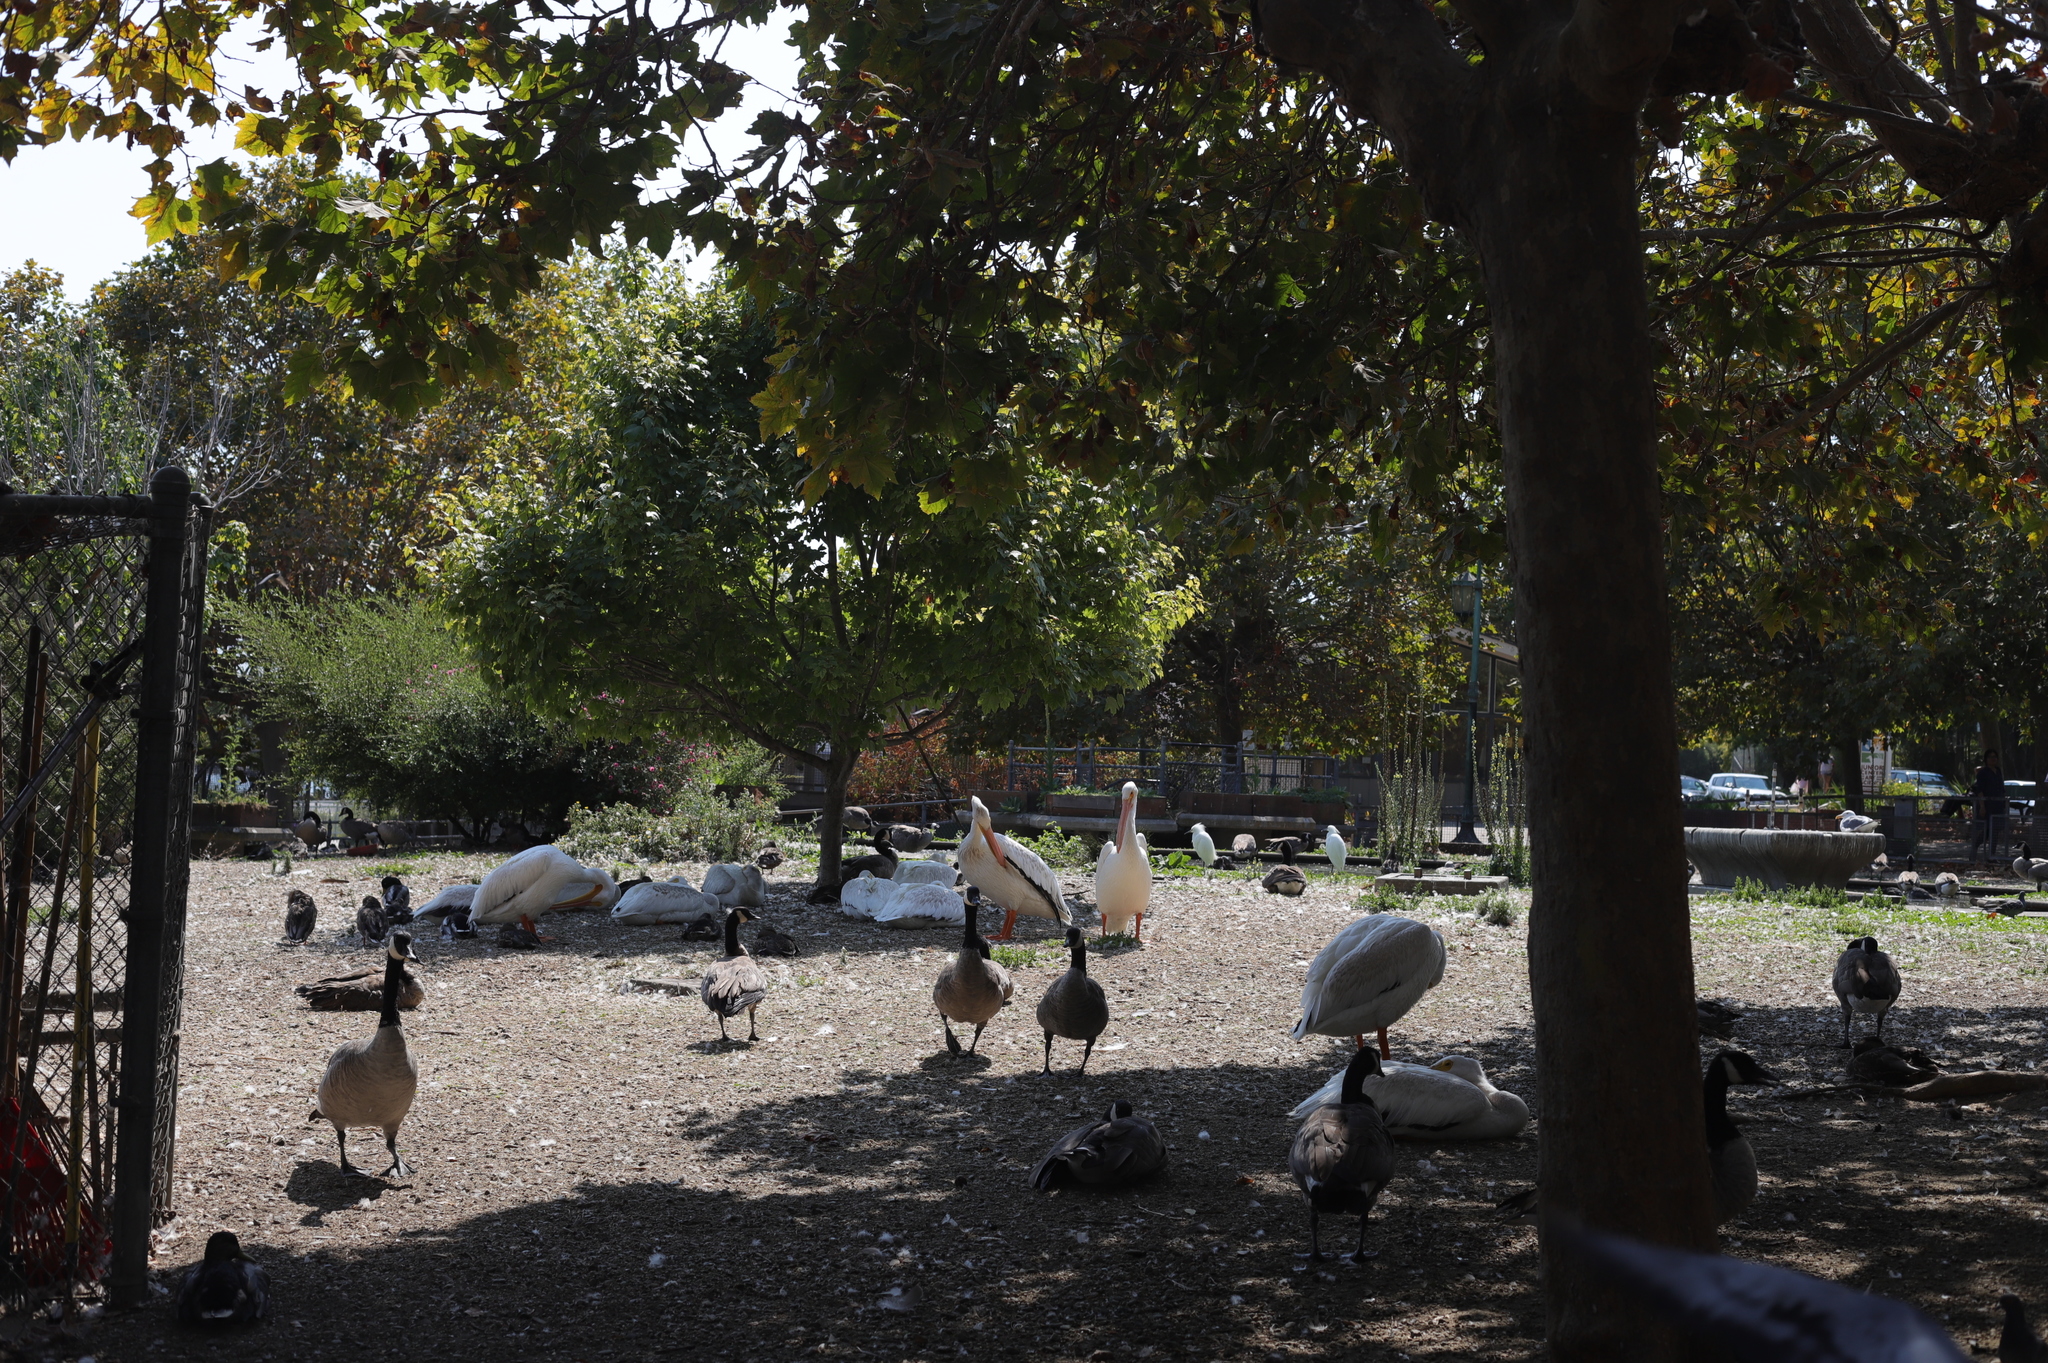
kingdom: Animalia
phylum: Chordata
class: Aves
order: Anseriformes
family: Anatidae
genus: Branta
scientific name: Branta canadensis
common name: Canada goose
